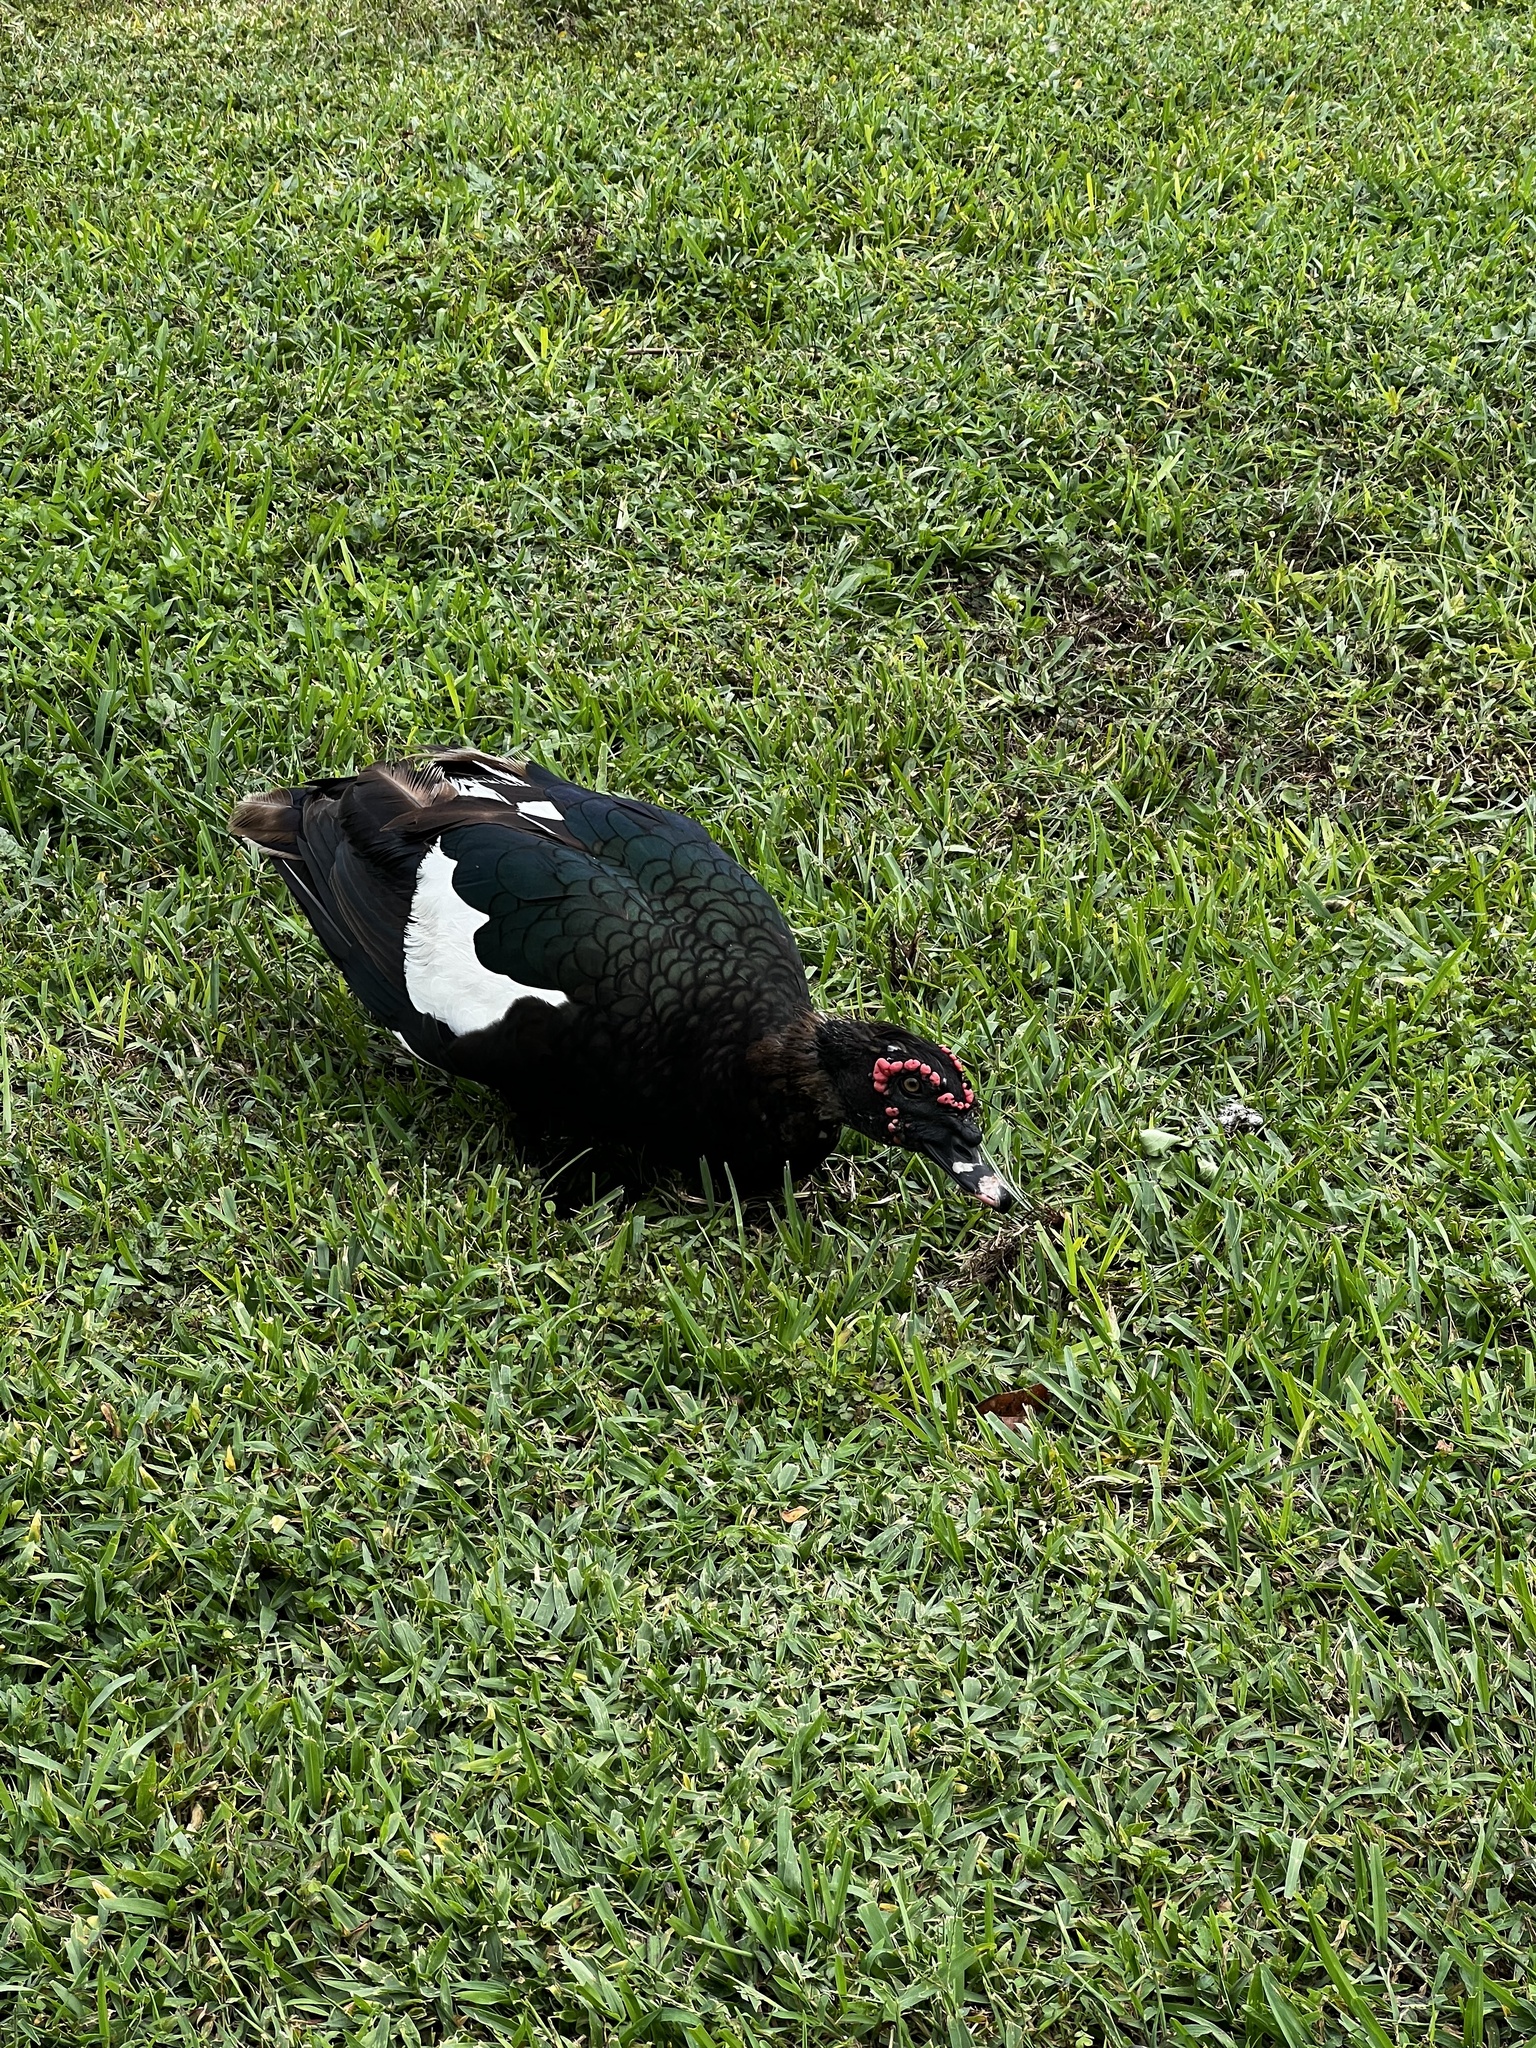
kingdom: Animalia
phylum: Chordata
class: Aves
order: Anseriformes
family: Anatidae
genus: Cairina
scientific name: Cairina moschata
